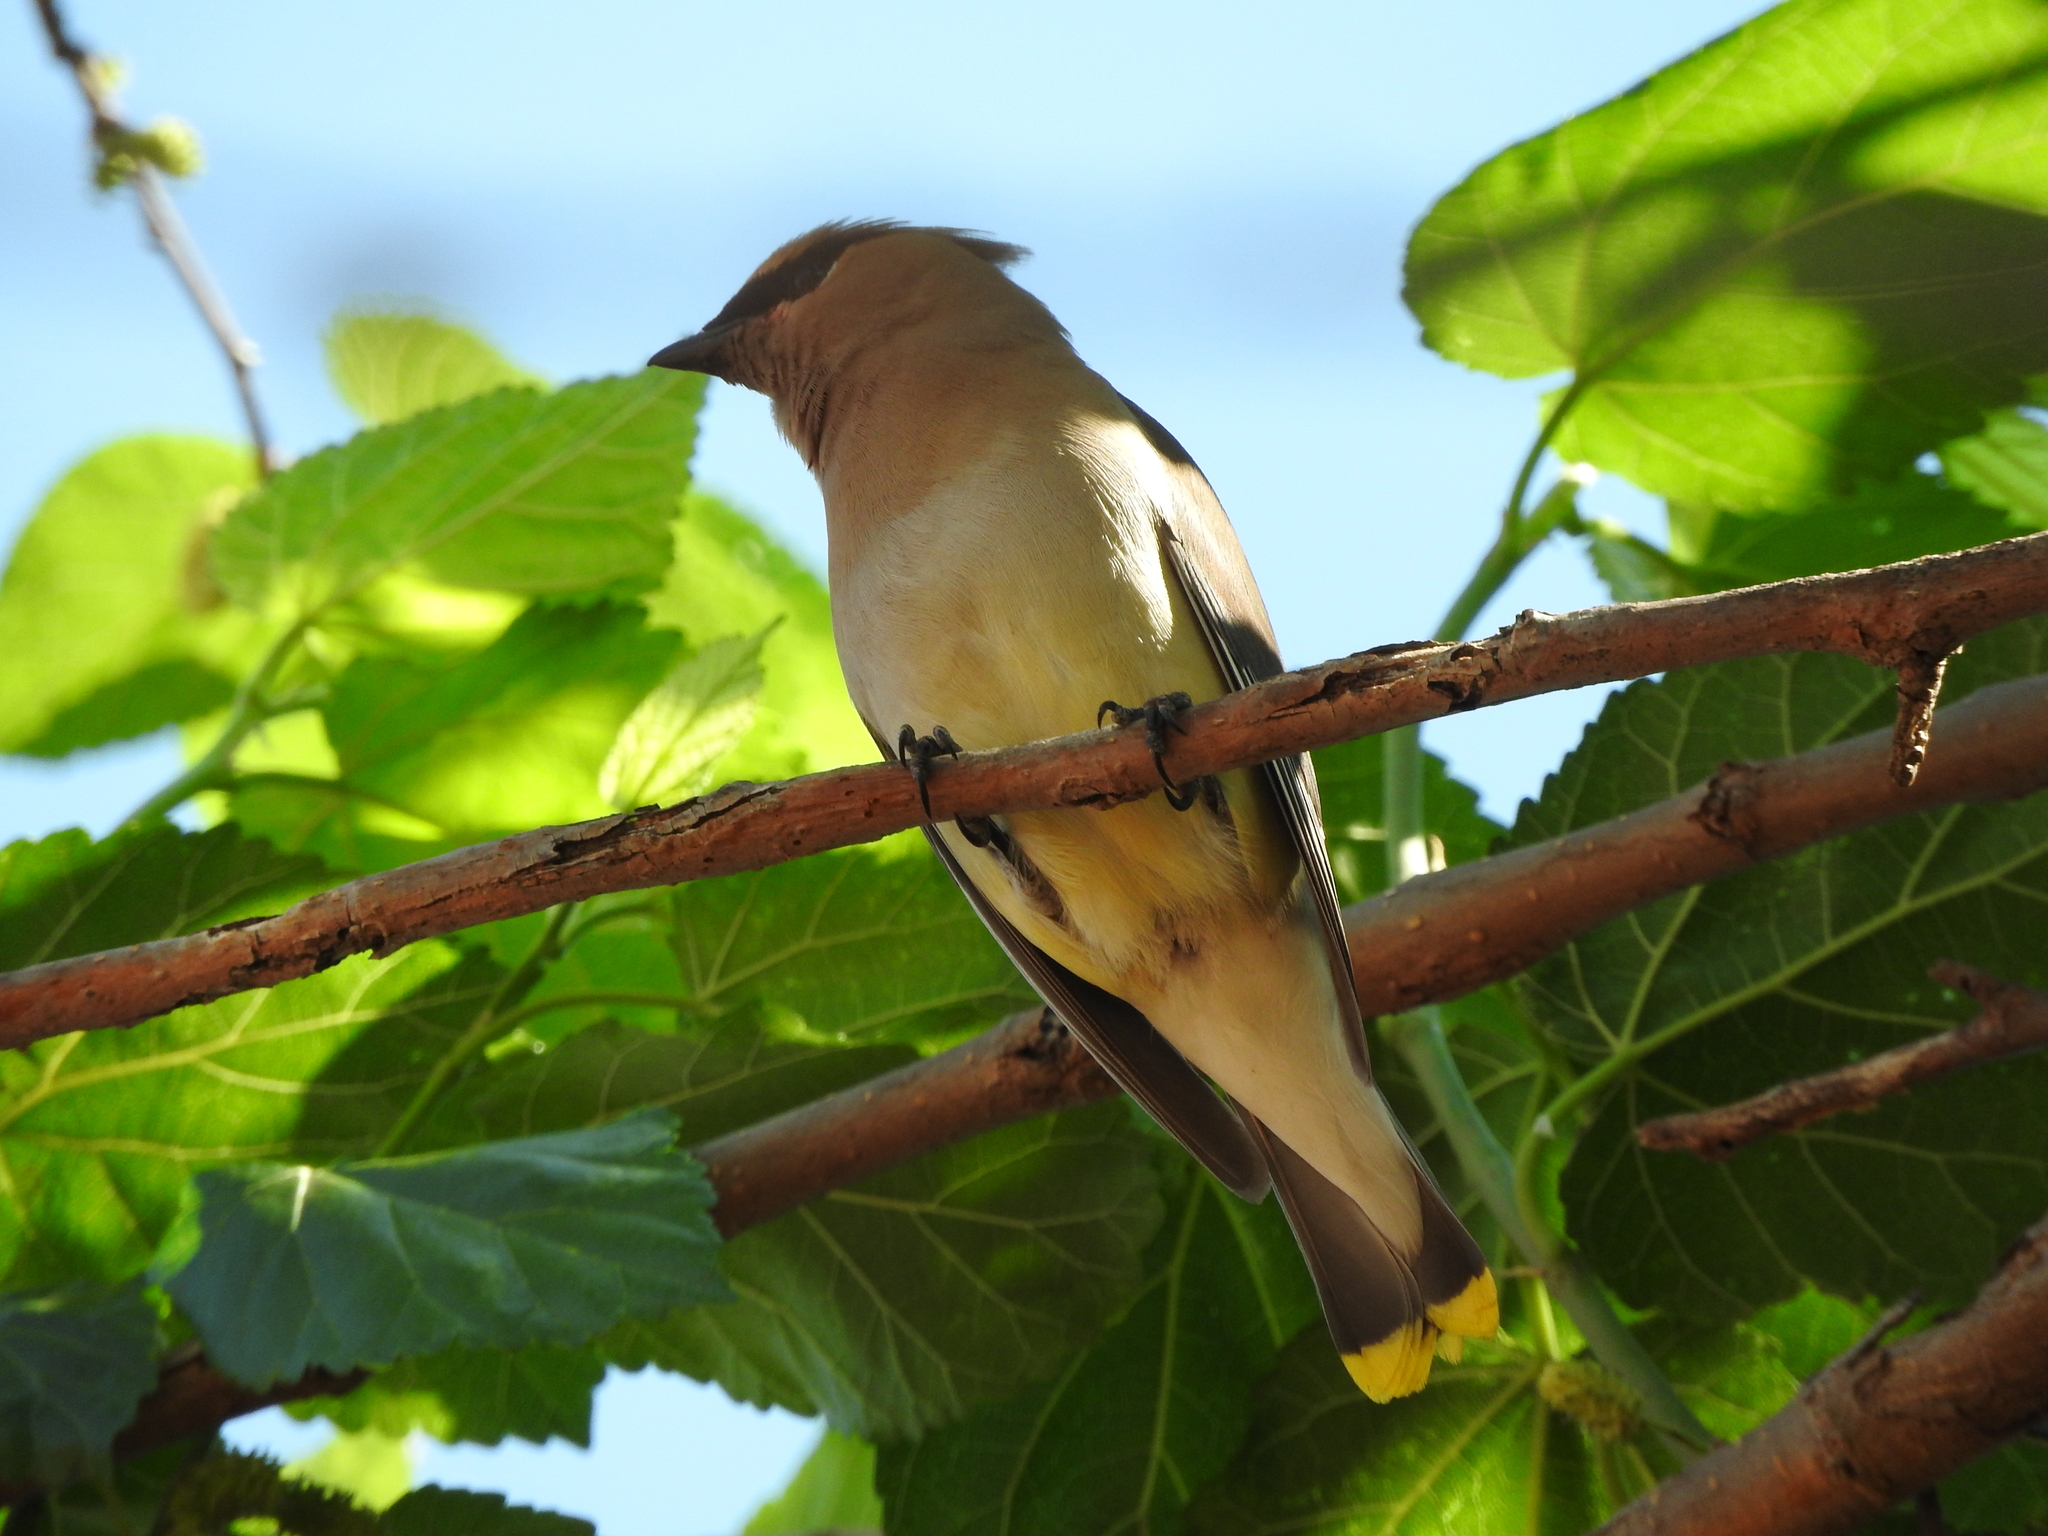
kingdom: Animalia
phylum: Chordata
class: Aves
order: Passeriformes
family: Bombycillidae
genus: Bombycilla
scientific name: Bombycilla cedrorum
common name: Cedar waxwing
